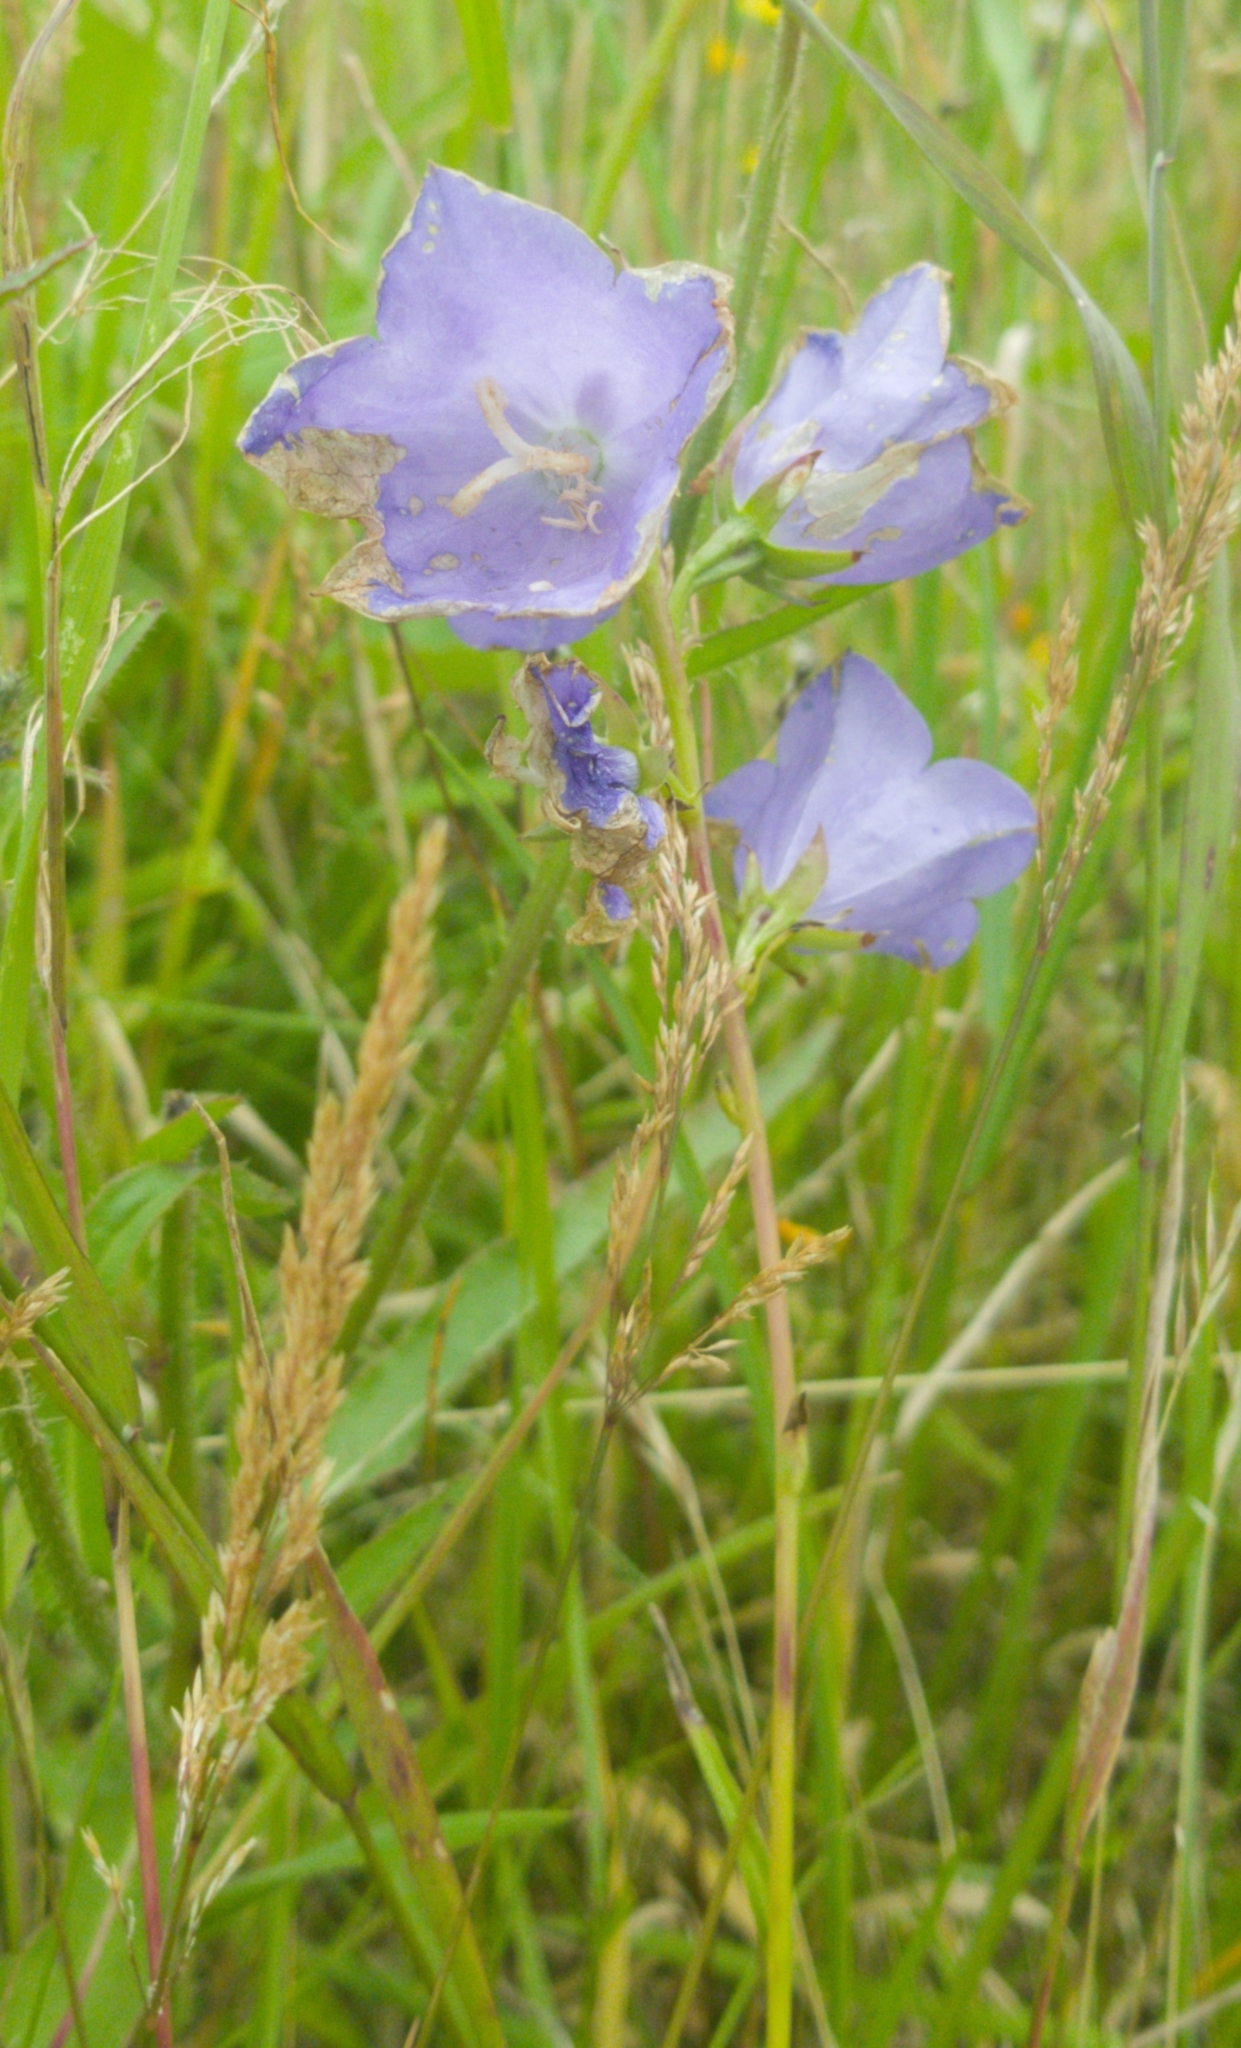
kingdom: Plantae
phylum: Tracheophyta
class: Magnoliopsida
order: Asterales
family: Campanulaceae
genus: Campanula
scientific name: Campanula persicifolia
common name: Peach-leaved bellflower
